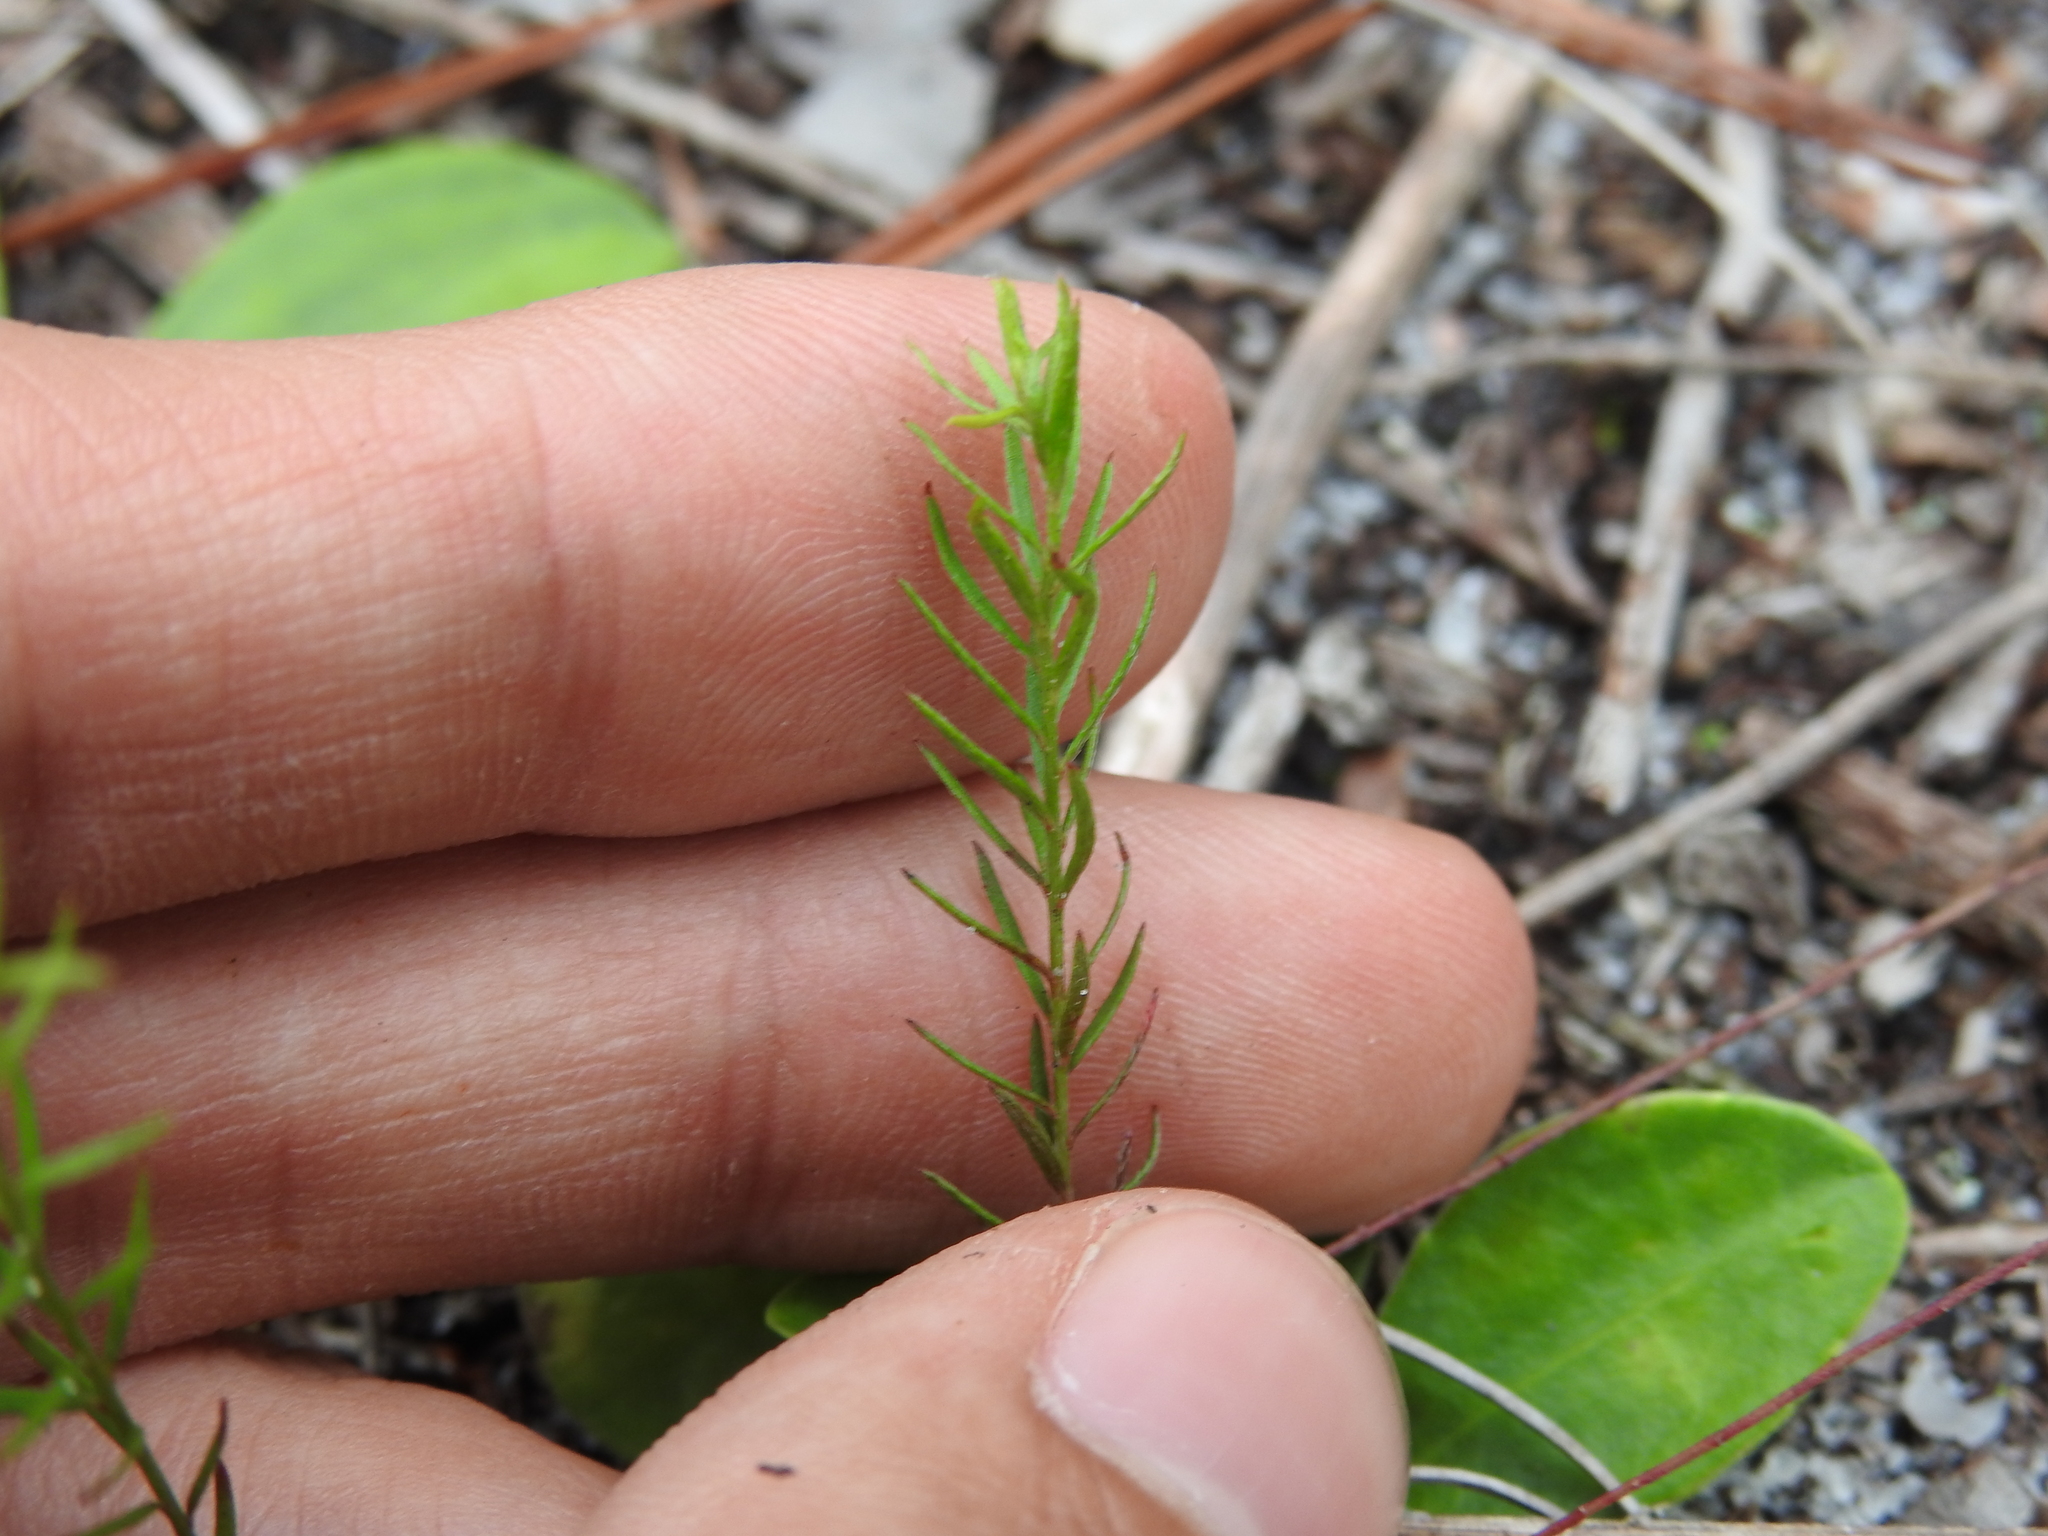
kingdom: Plantae
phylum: Tracheophyta
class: Magnoliopsida
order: Malvales
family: Cistaceae
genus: Lechea
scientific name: Lechea torreyi
